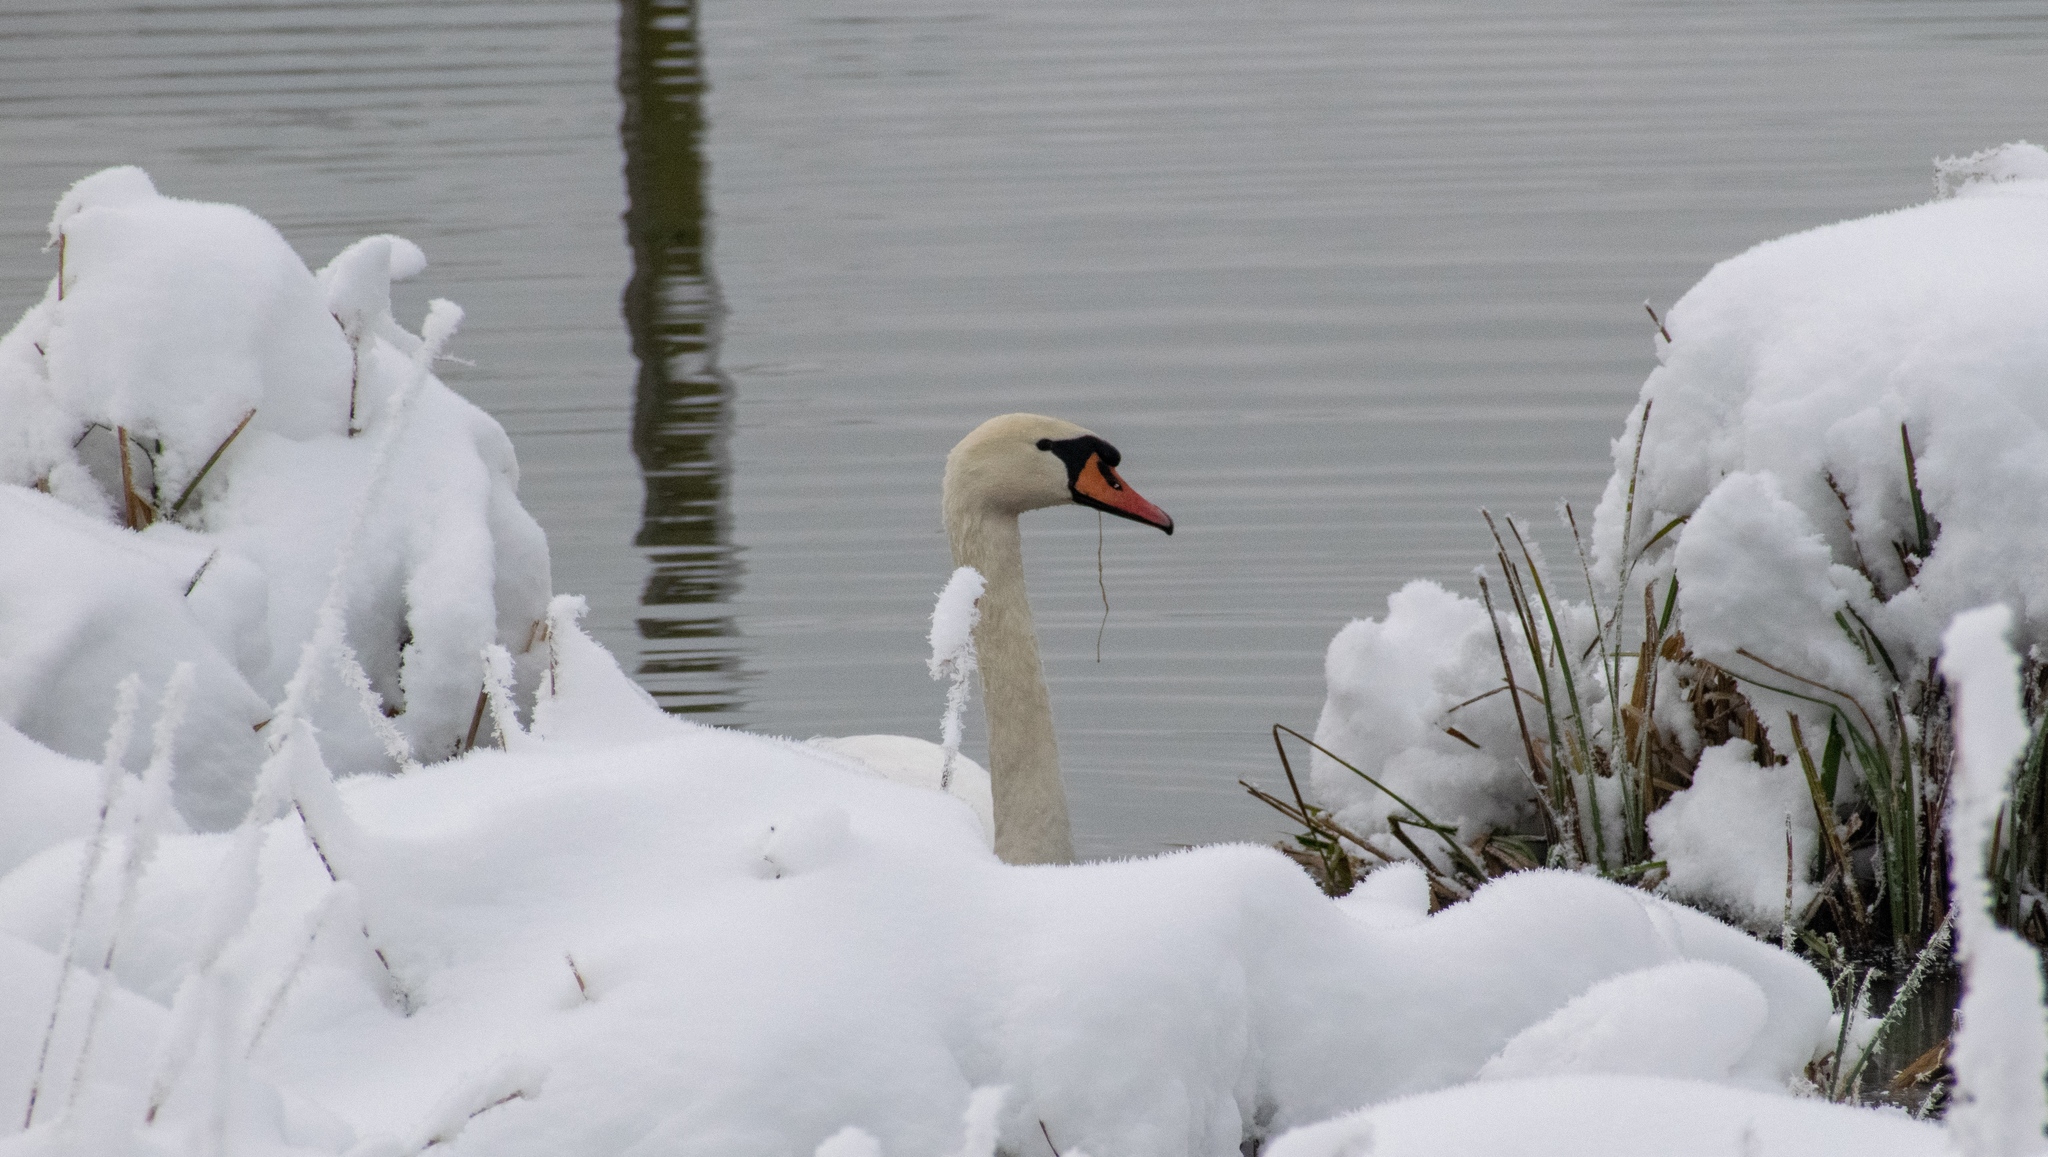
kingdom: Animalia
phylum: Chordata
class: Aves
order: Anseriformes
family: Anatidae
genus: Cygnus
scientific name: Cygnus olor
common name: Mute swan
